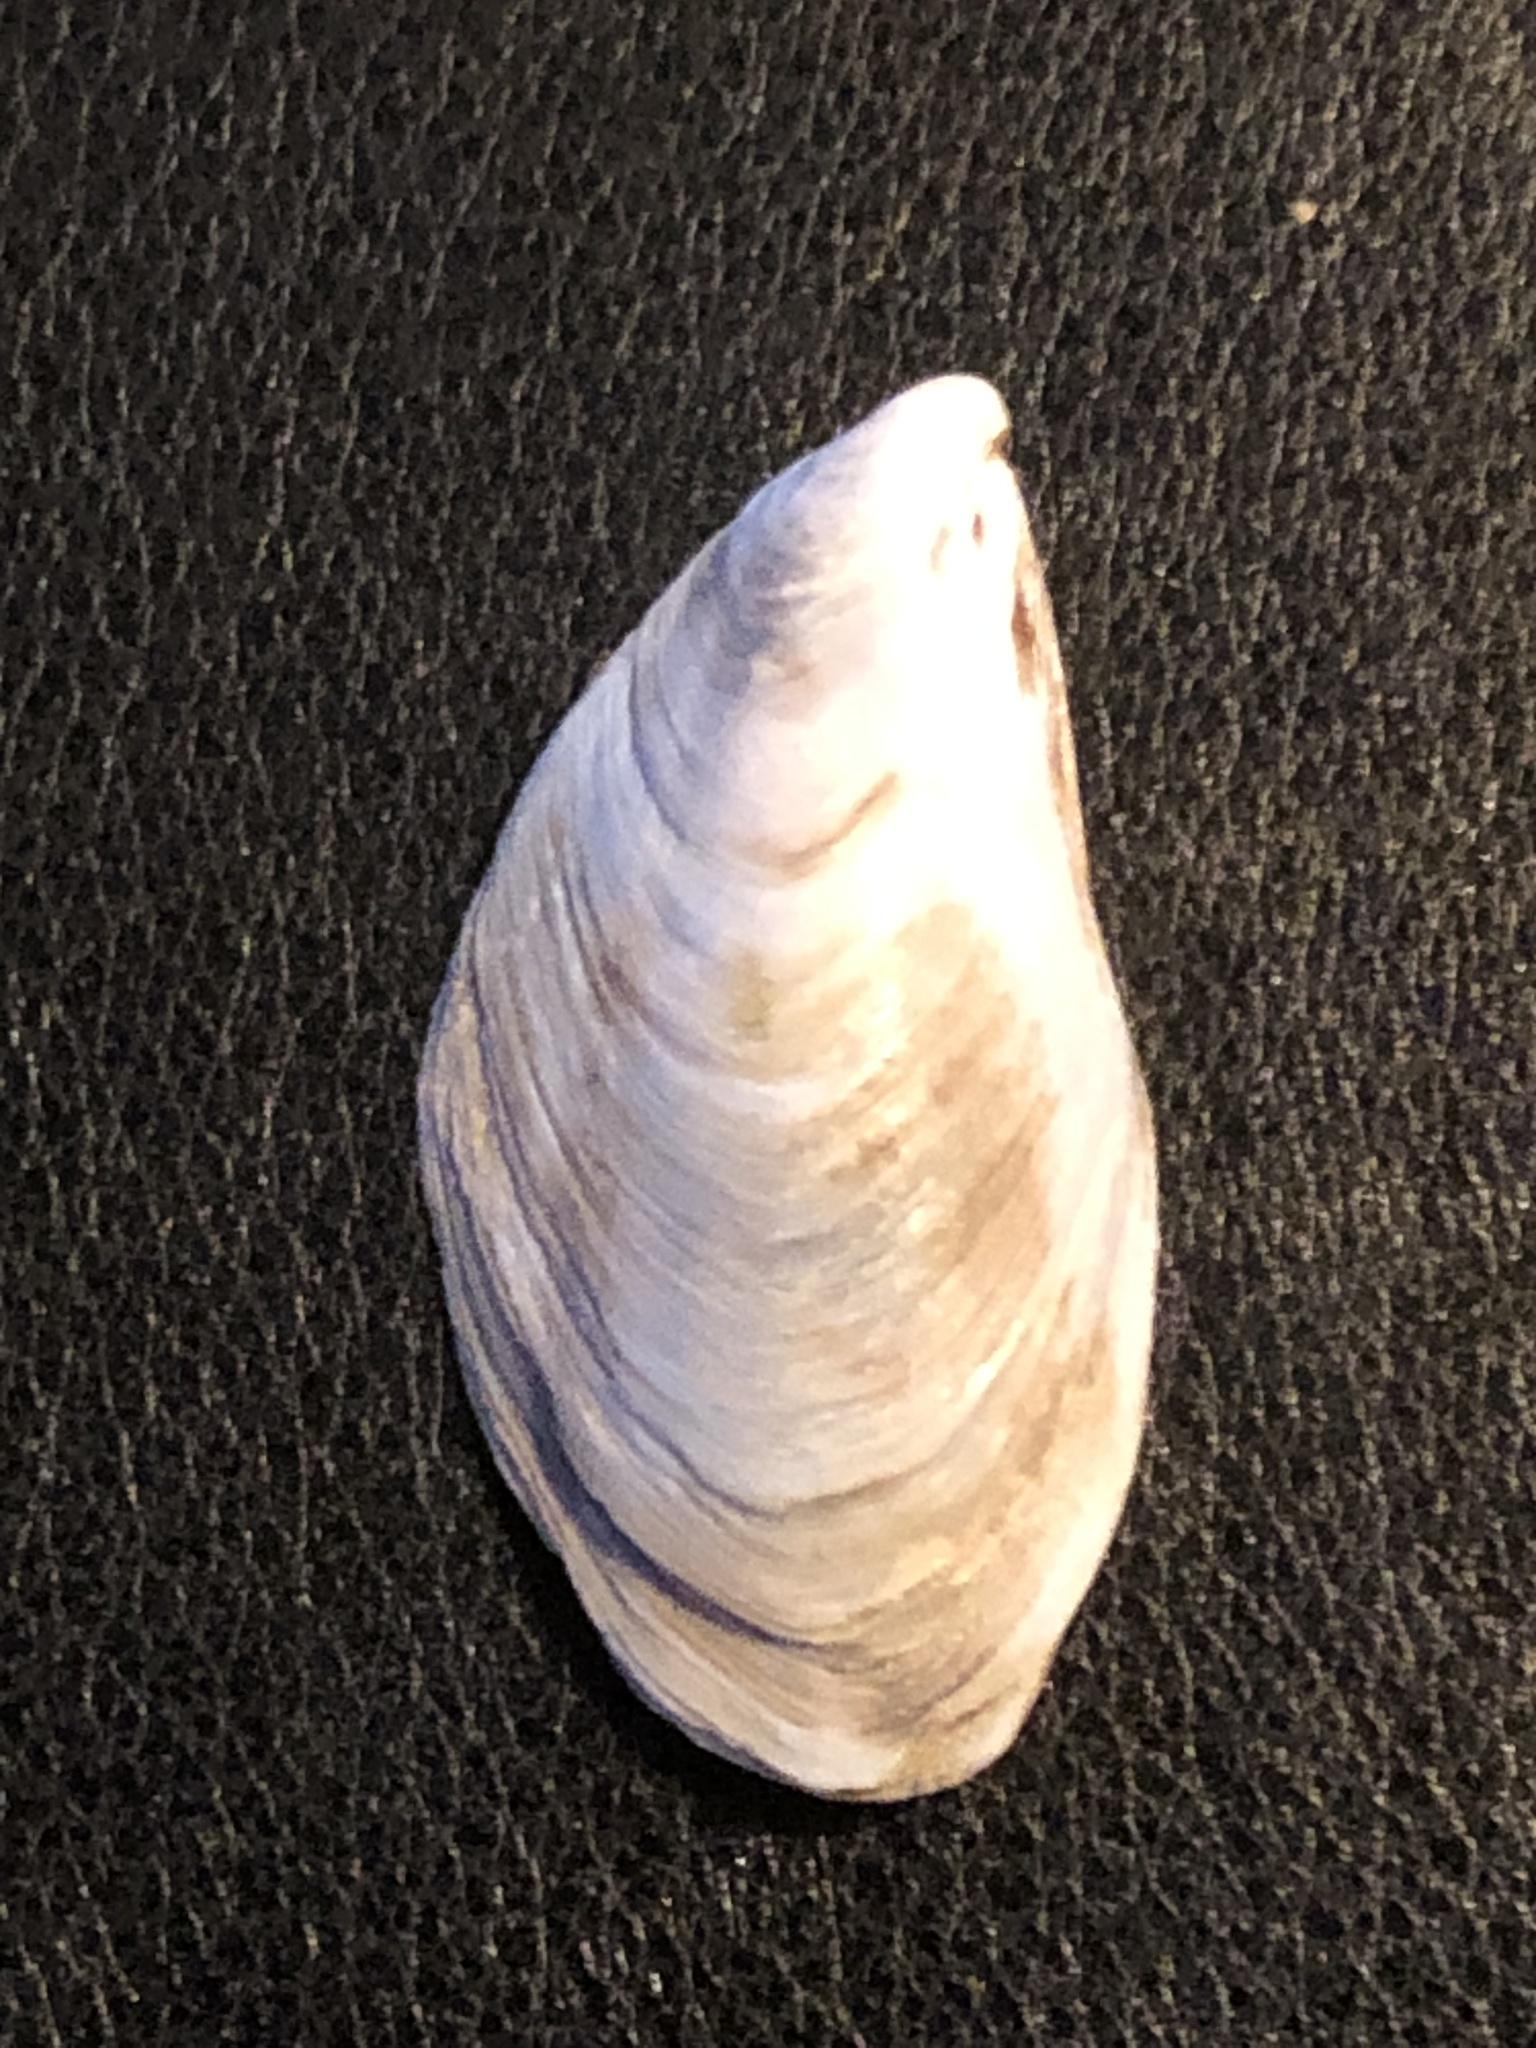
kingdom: Animalia
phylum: Mollusca
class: Bivalvia
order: Myida
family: Dreissenidae
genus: Dreissena
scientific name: Dreissena bugensis
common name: Quagga mussel
